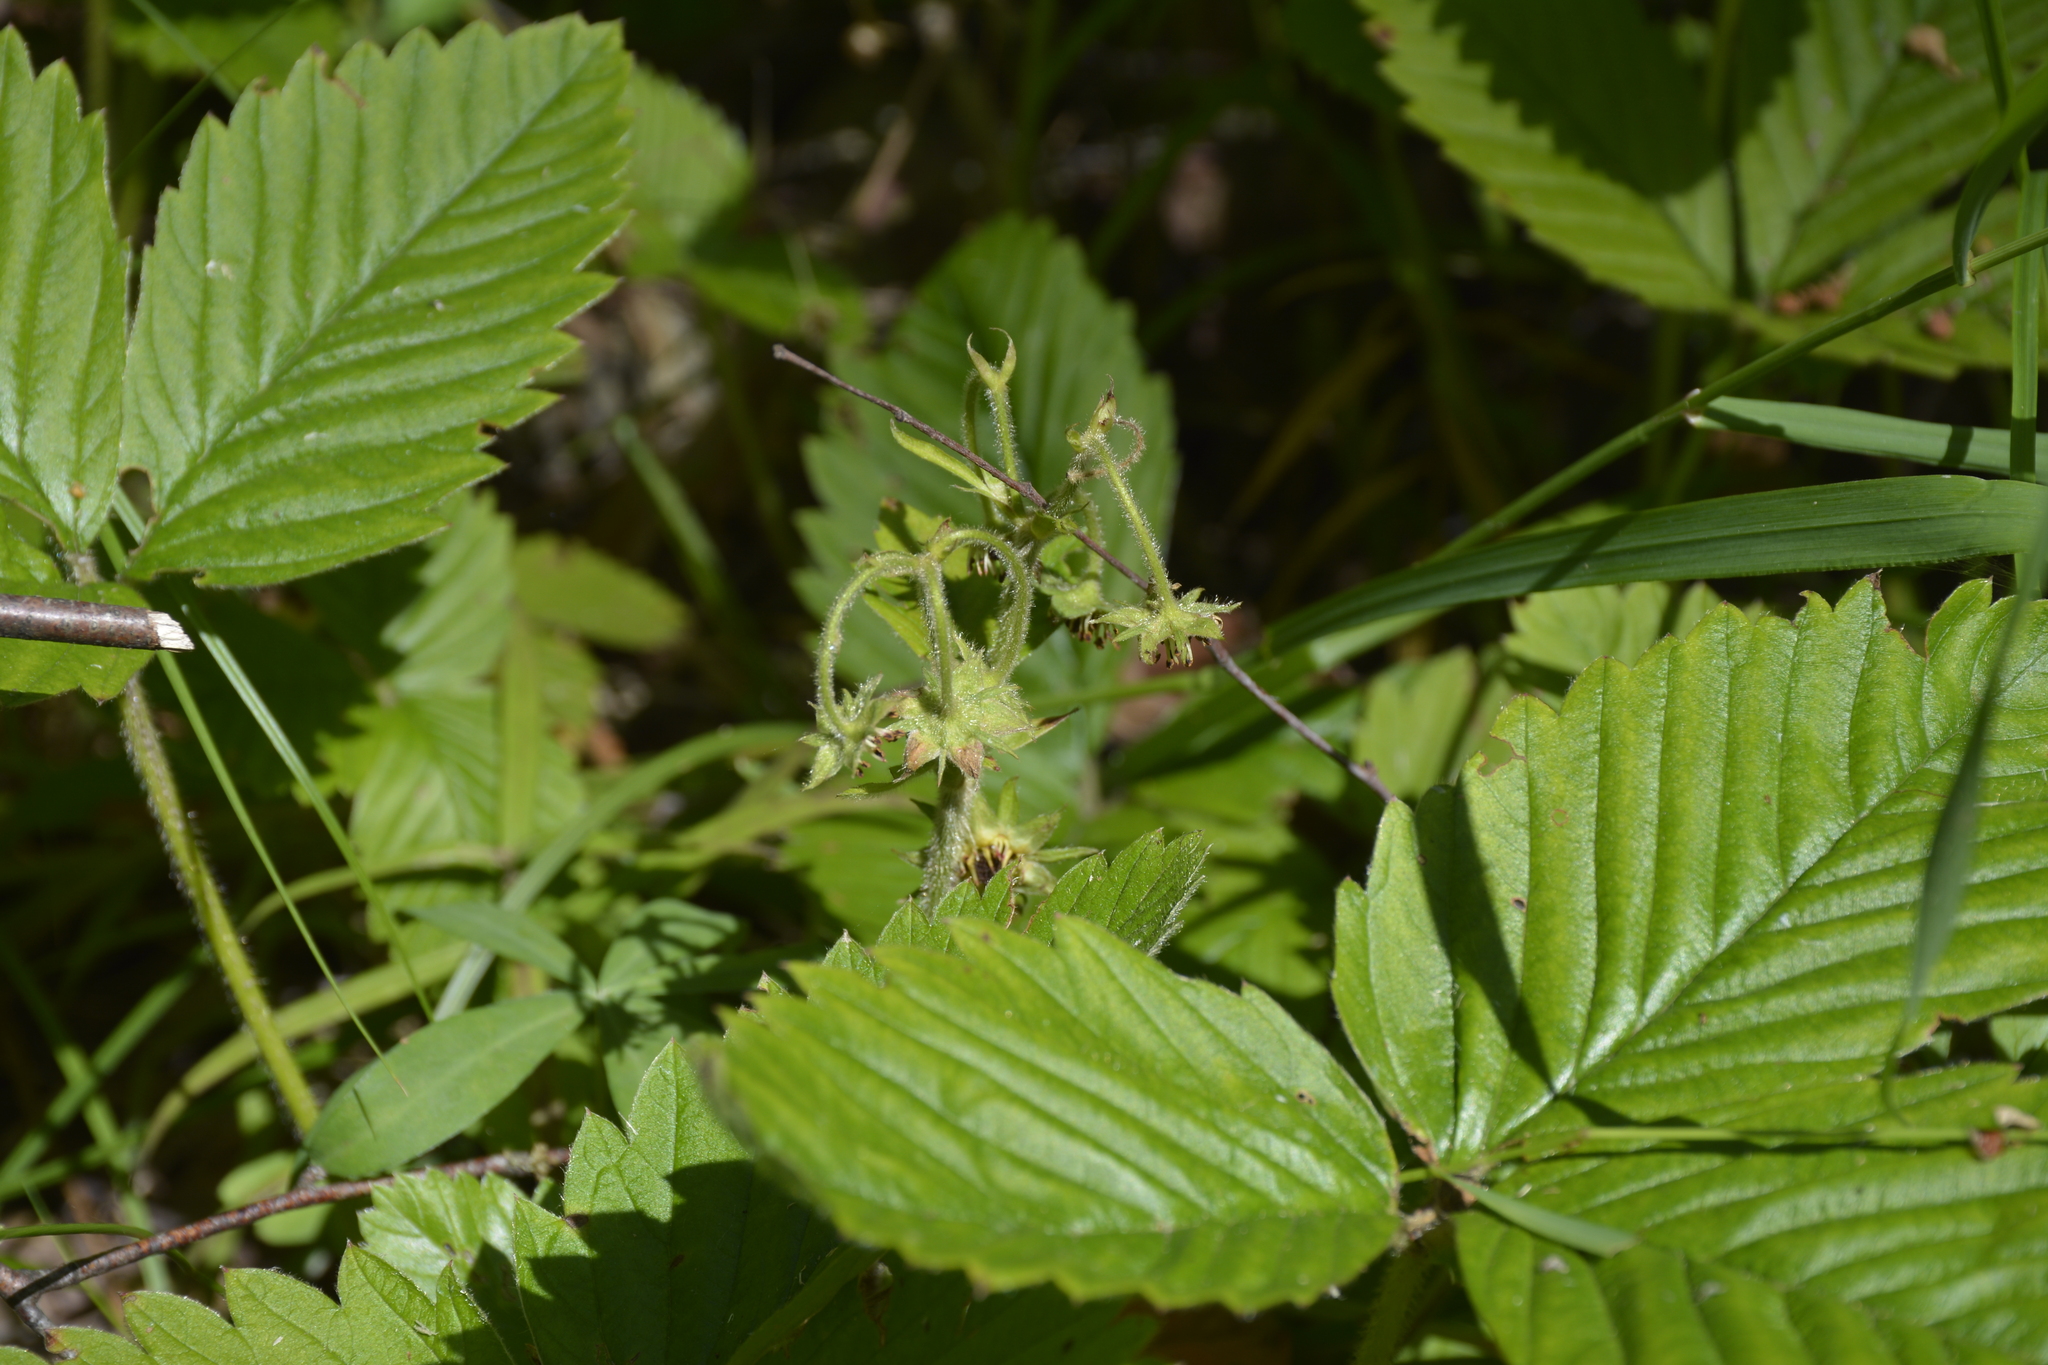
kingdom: Plantae
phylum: Tracheophyta
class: Magnoliopsida
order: Rosales
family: Rosaceae
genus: Fragaria
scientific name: Fragaria moschata
